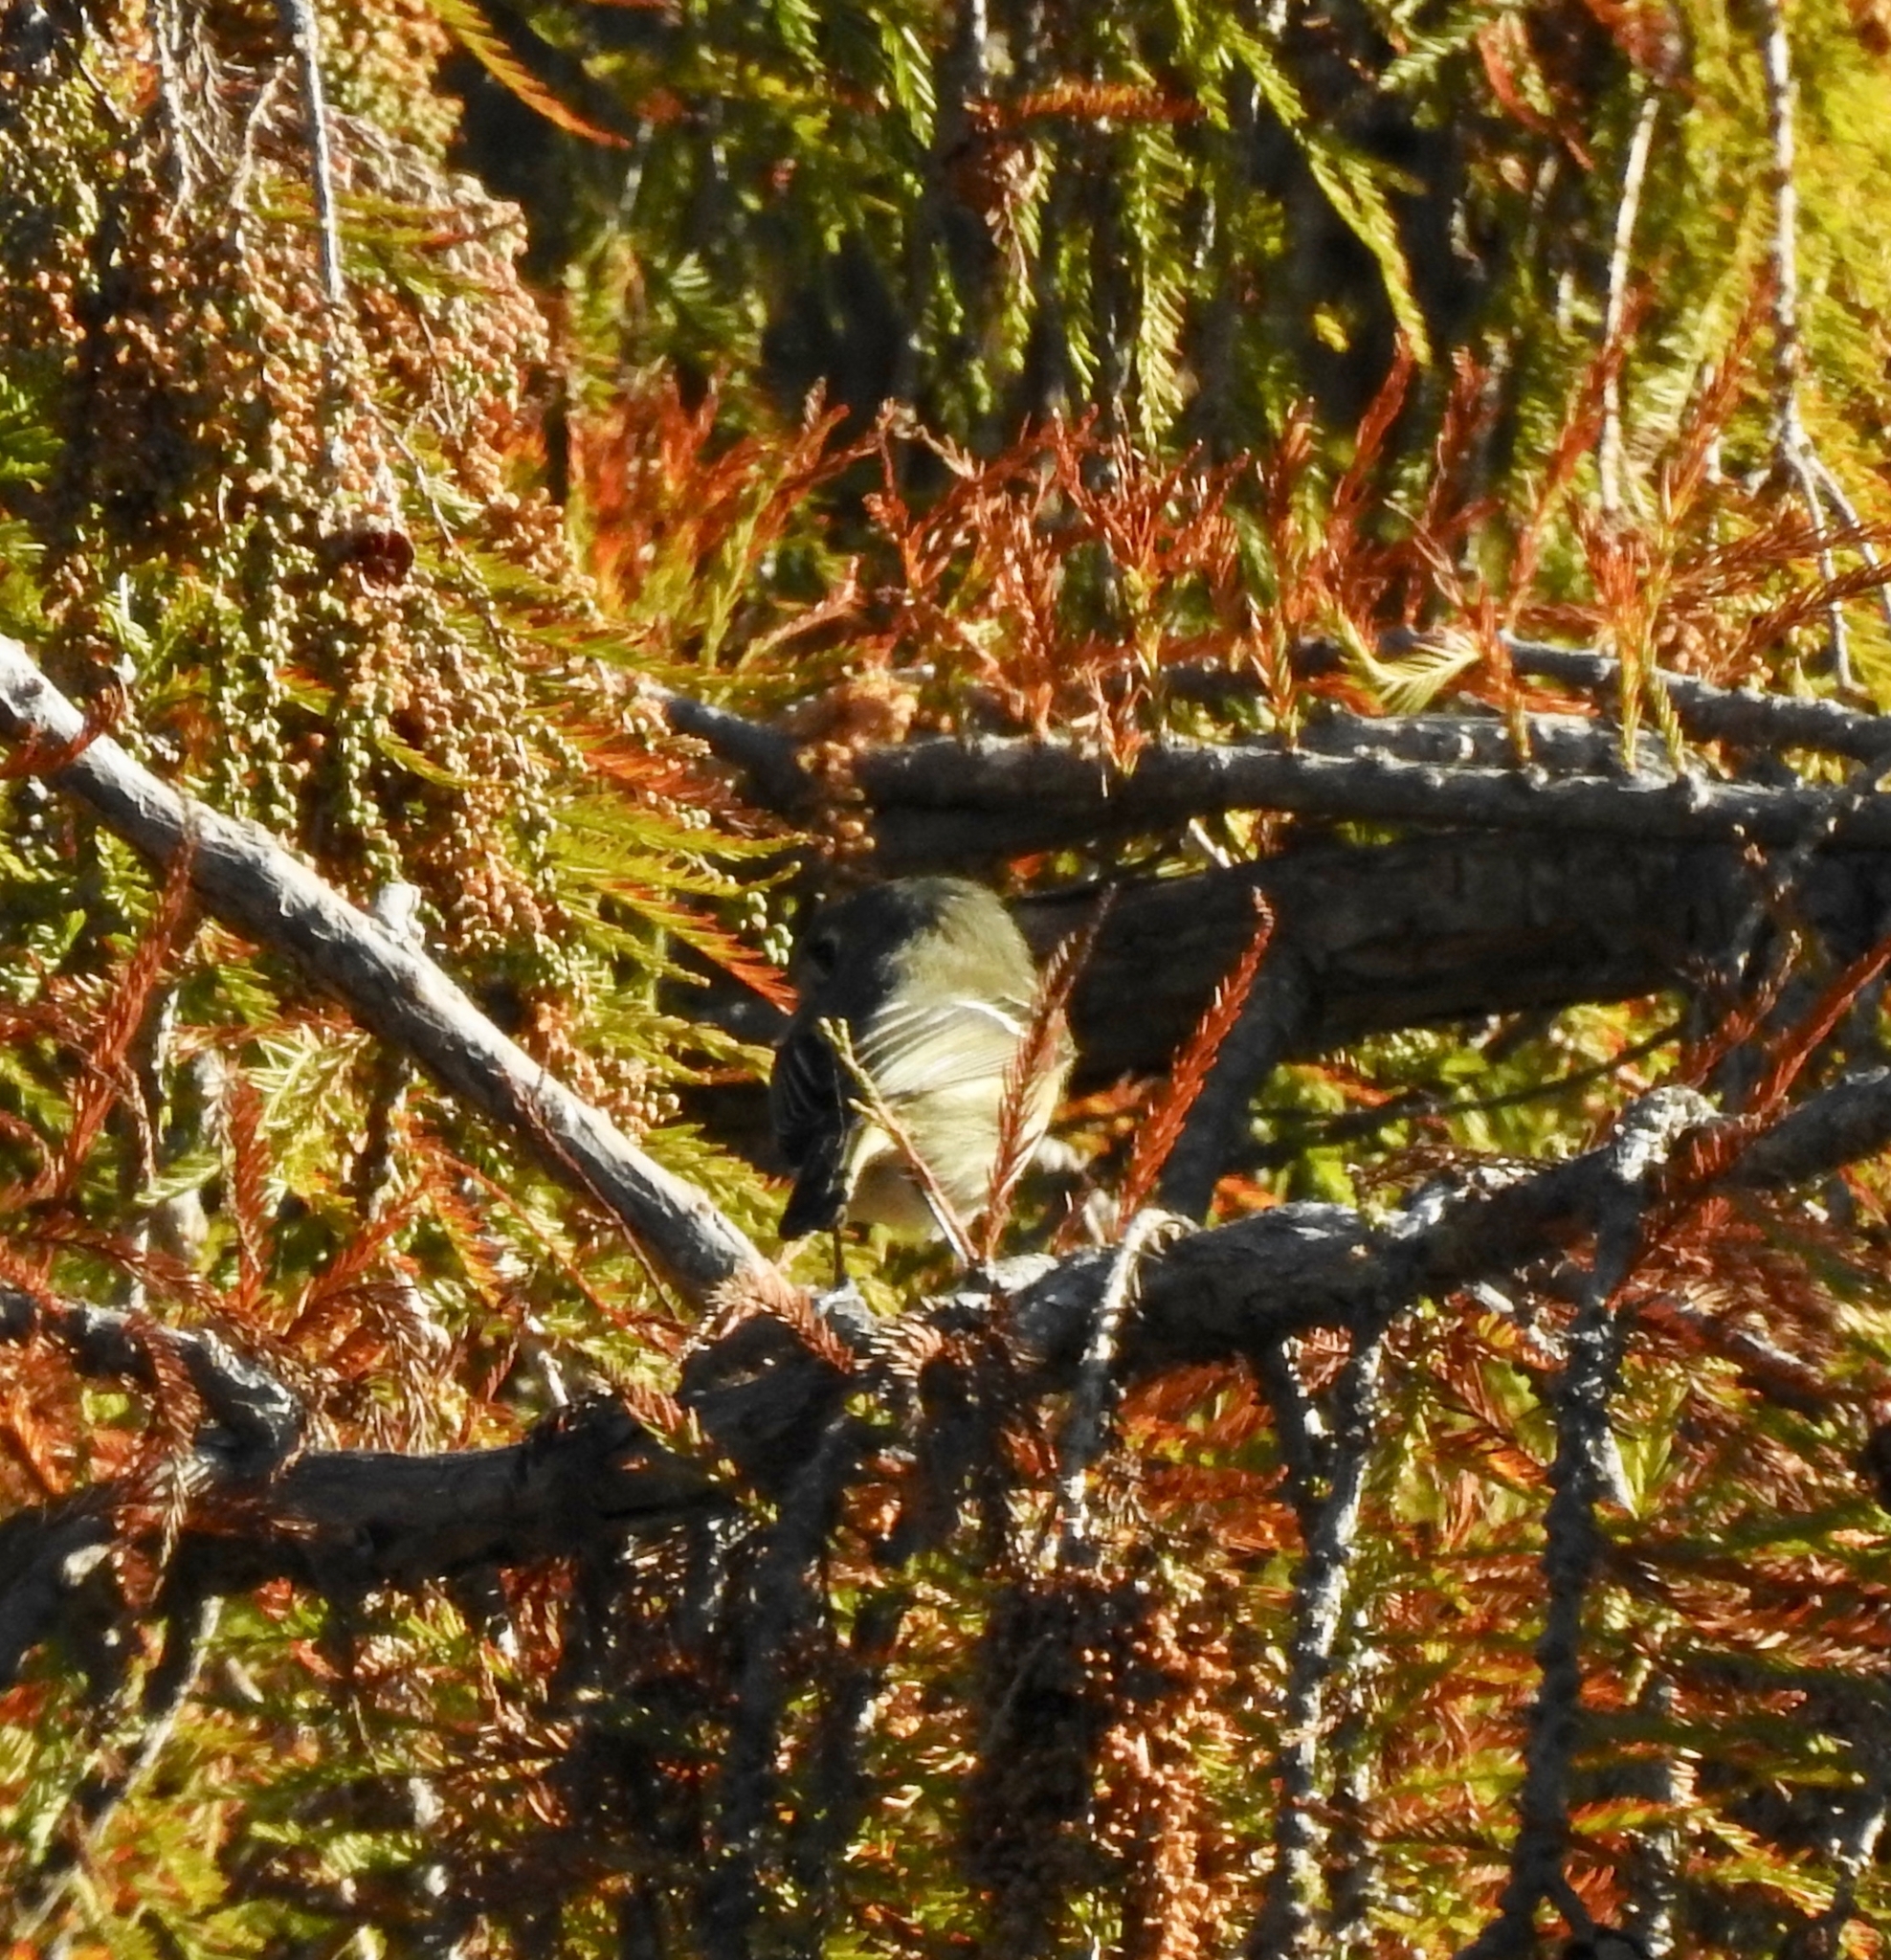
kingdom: Animalia
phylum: Chordata
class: Aves
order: Passeriformes
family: Vireonidae
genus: Vireo
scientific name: Vireo huttoni
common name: Hutton's vireo
